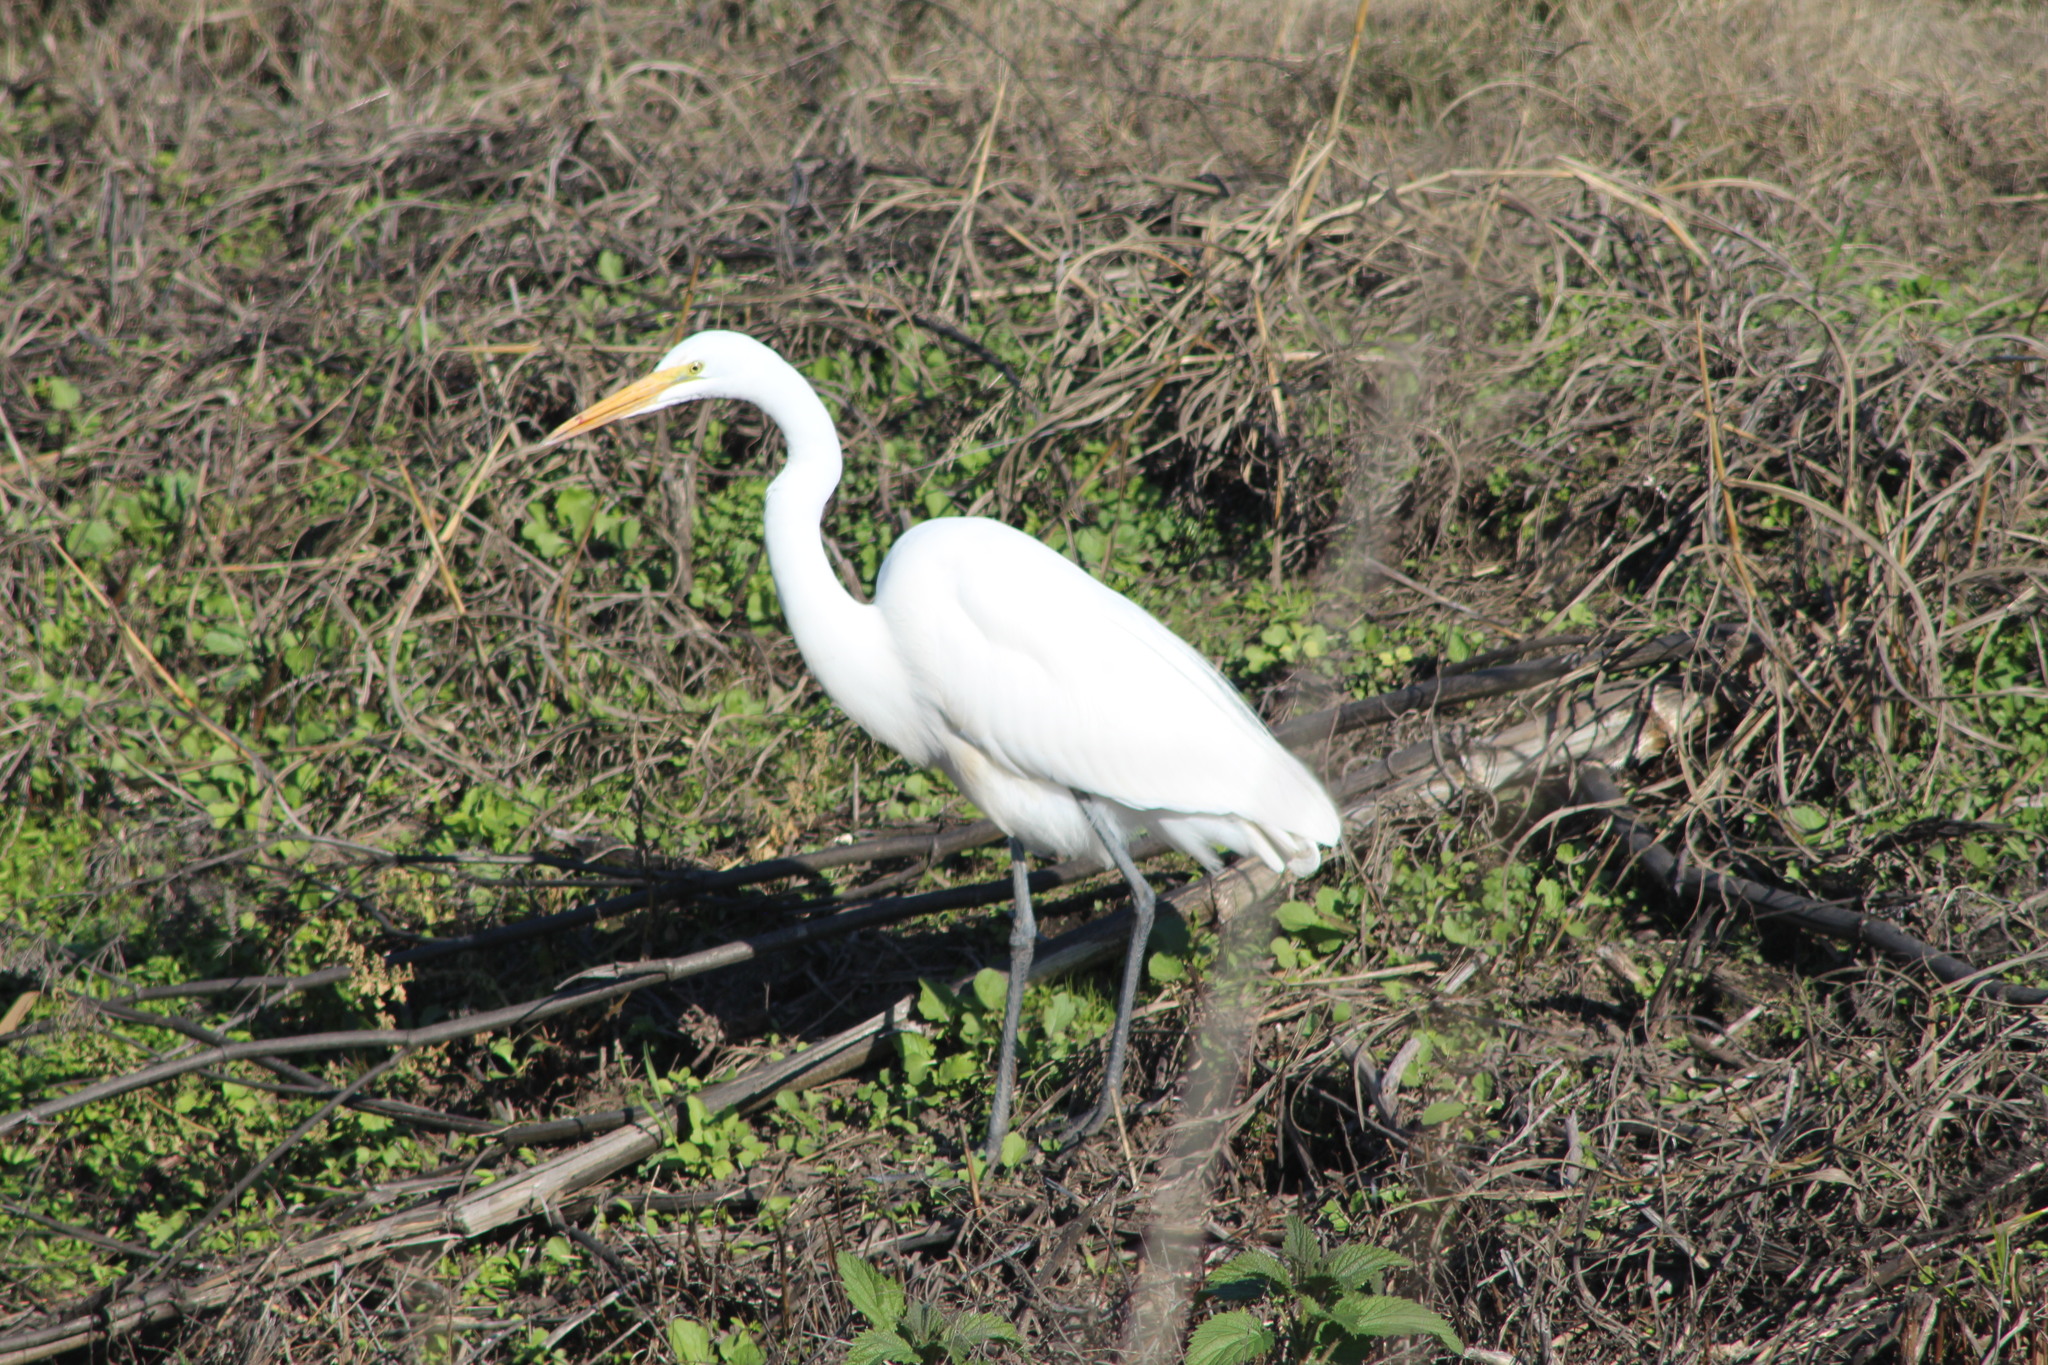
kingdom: Animalia
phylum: Chordata
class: Aves
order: Pelecaniformes
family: Ardeidae
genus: Ardea
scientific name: Ardea alba
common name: Great egret
